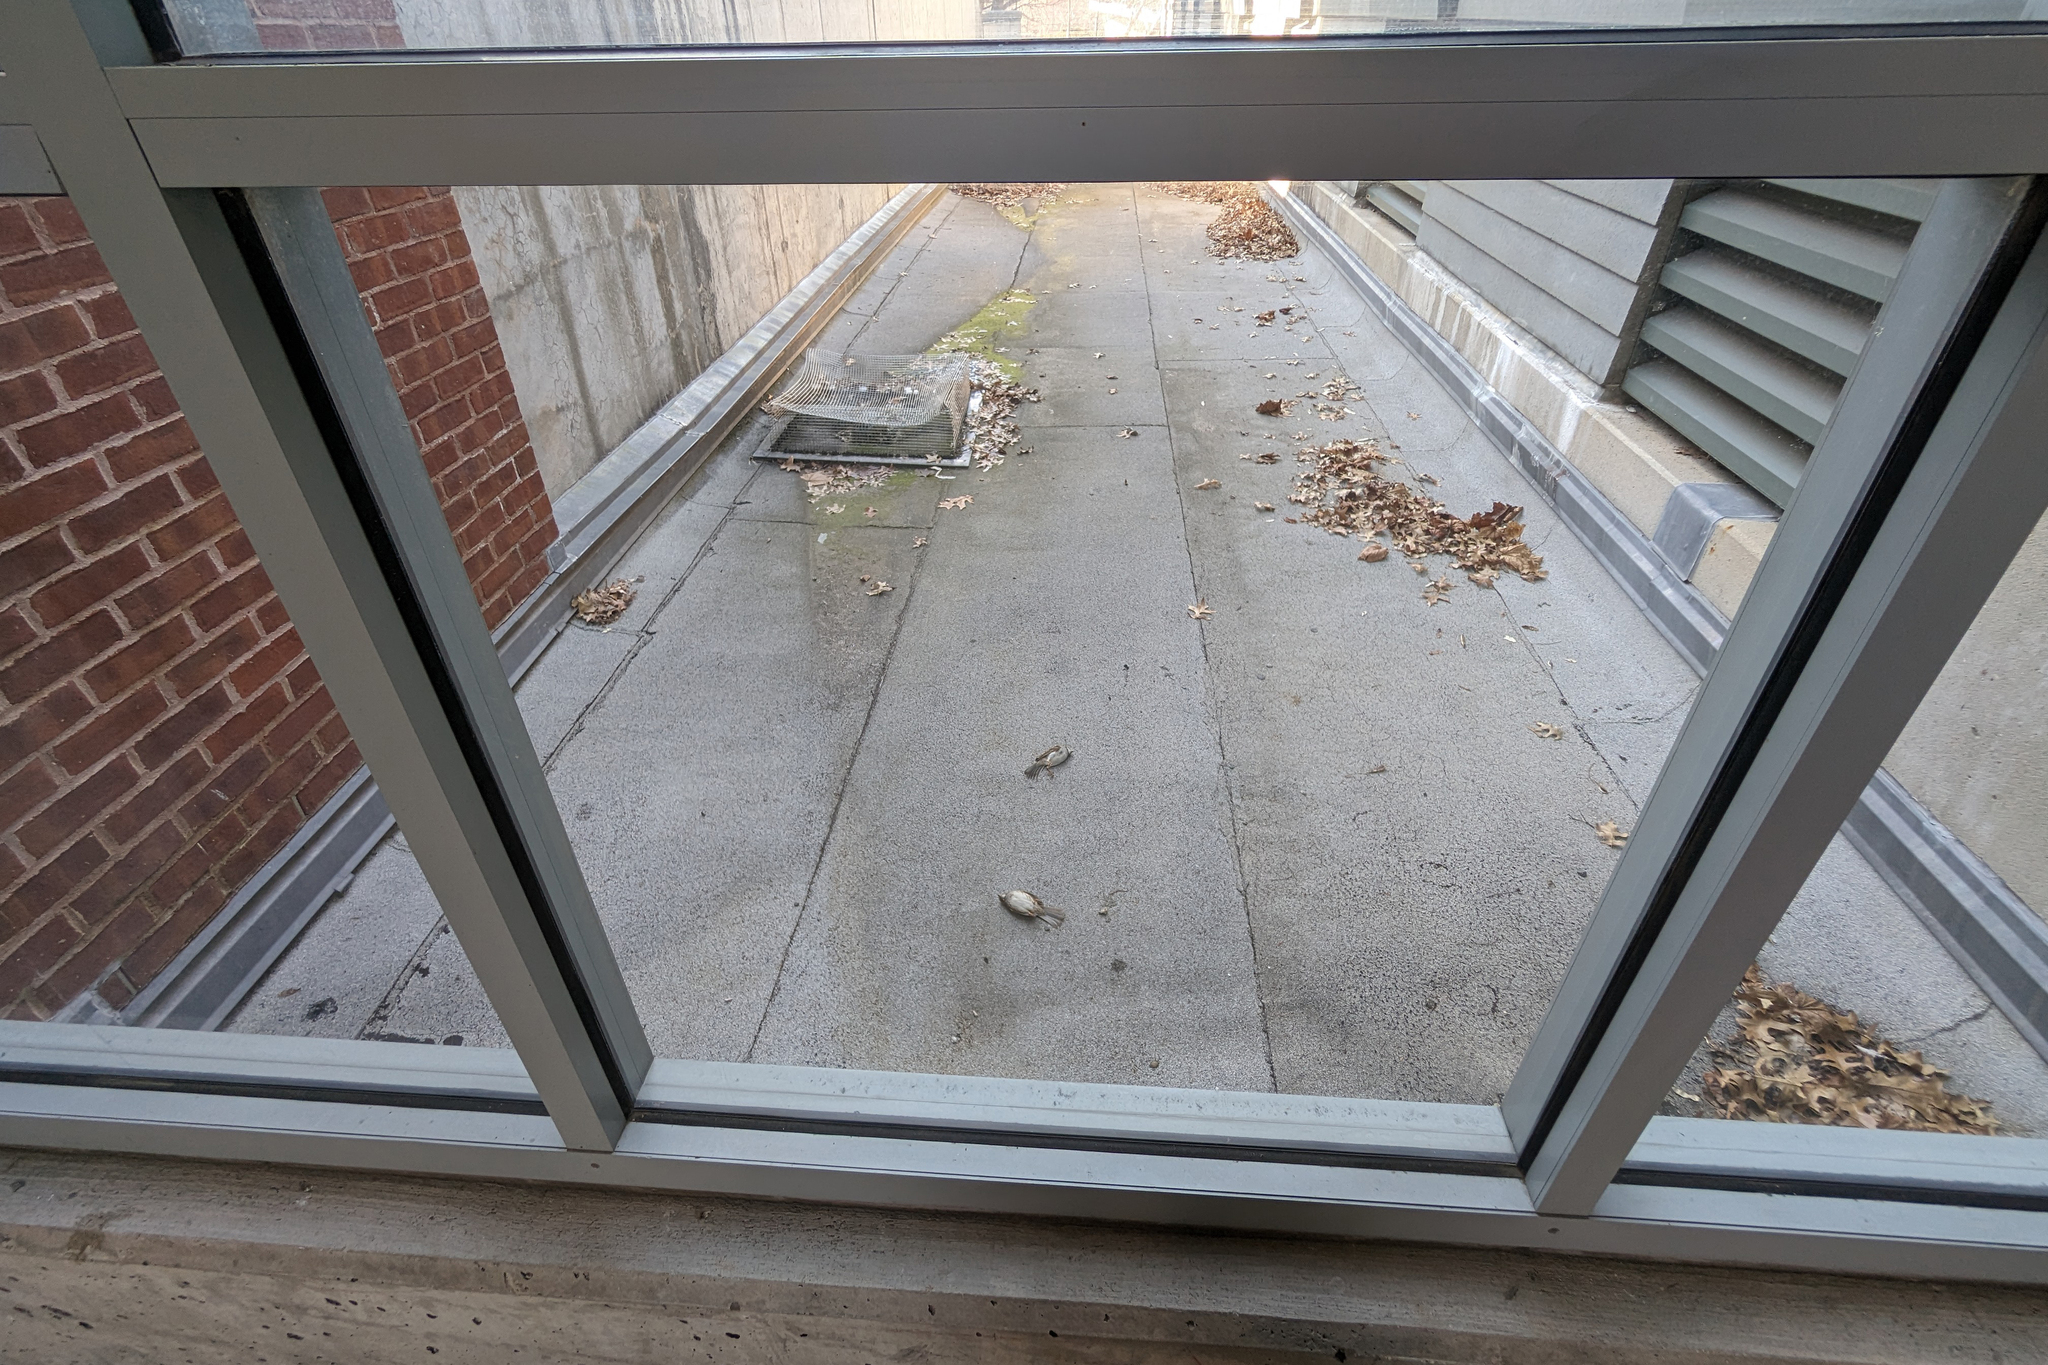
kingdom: Animalia
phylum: Chordata
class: Aves
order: Passeriformes
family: Passerellidae
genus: Zonotrichia
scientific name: Zonotrichia albicollis
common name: White-throated sparrow
